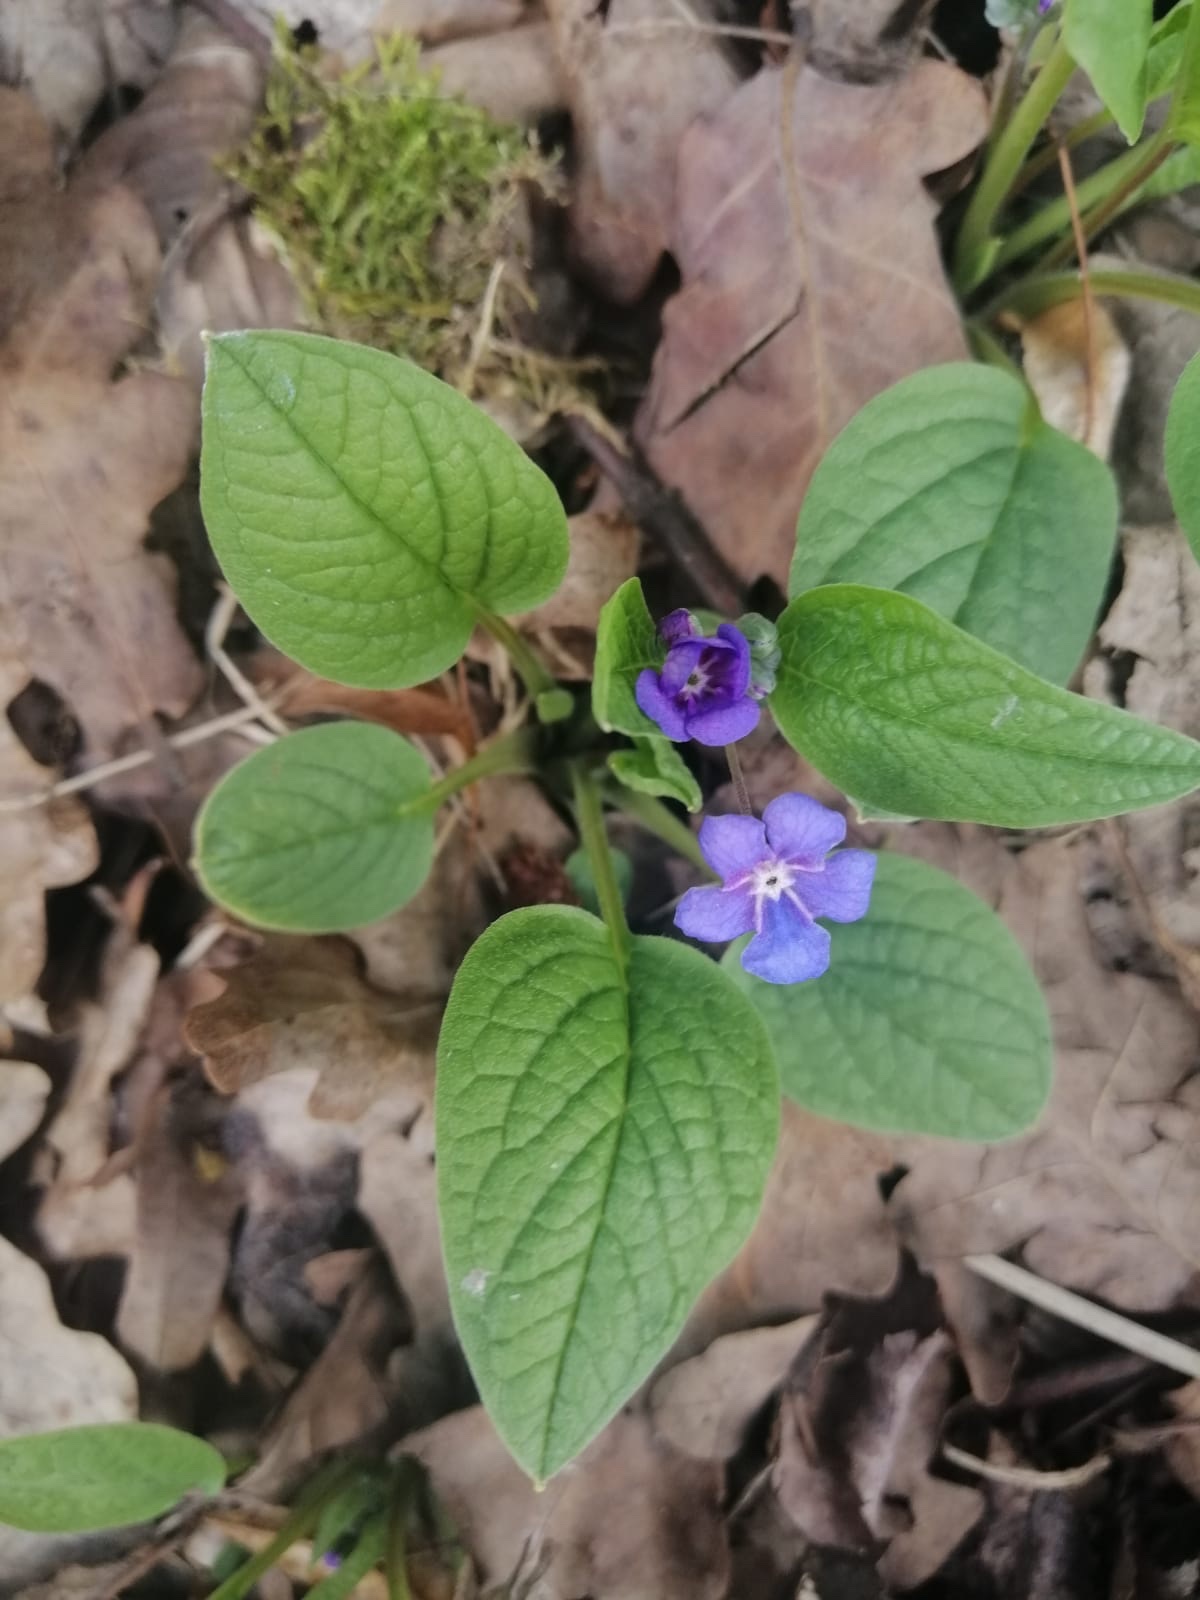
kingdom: Plantae
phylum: Tracheophyta
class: Magnoliopsida
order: Boraginales
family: Boraginaceae
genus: Omphalodes
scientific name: Omphalodes verna
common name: Blue-eyed-mary
